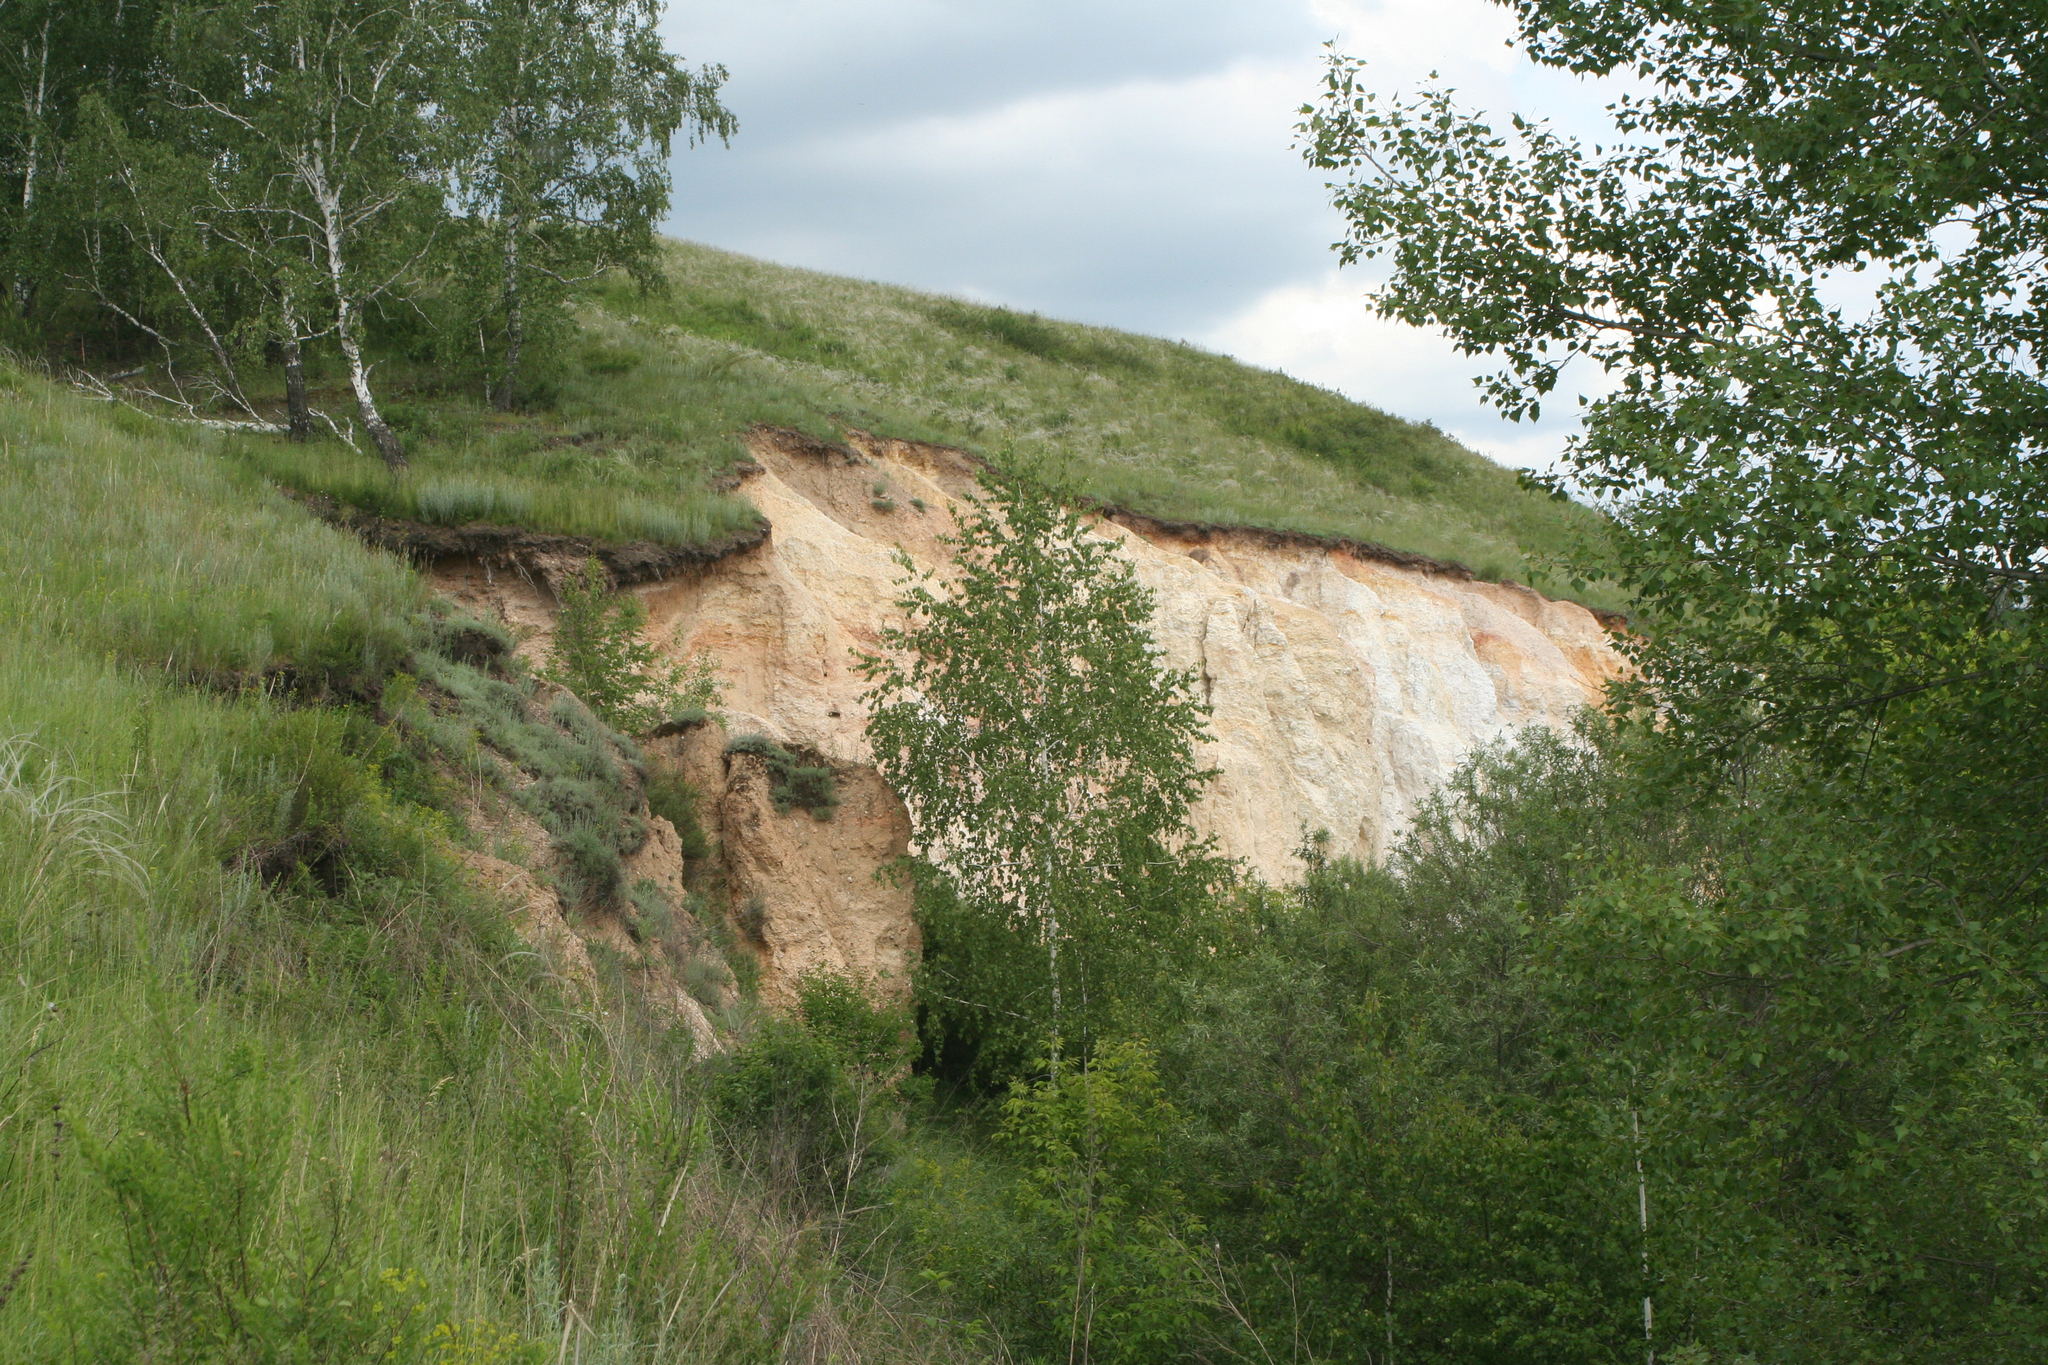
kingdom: Plantae
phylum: Tracheophyta
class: Magnoliopsida
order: Fagales
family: Betulaceae
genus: Betula
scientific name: Betula pendula
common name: Silver birch
